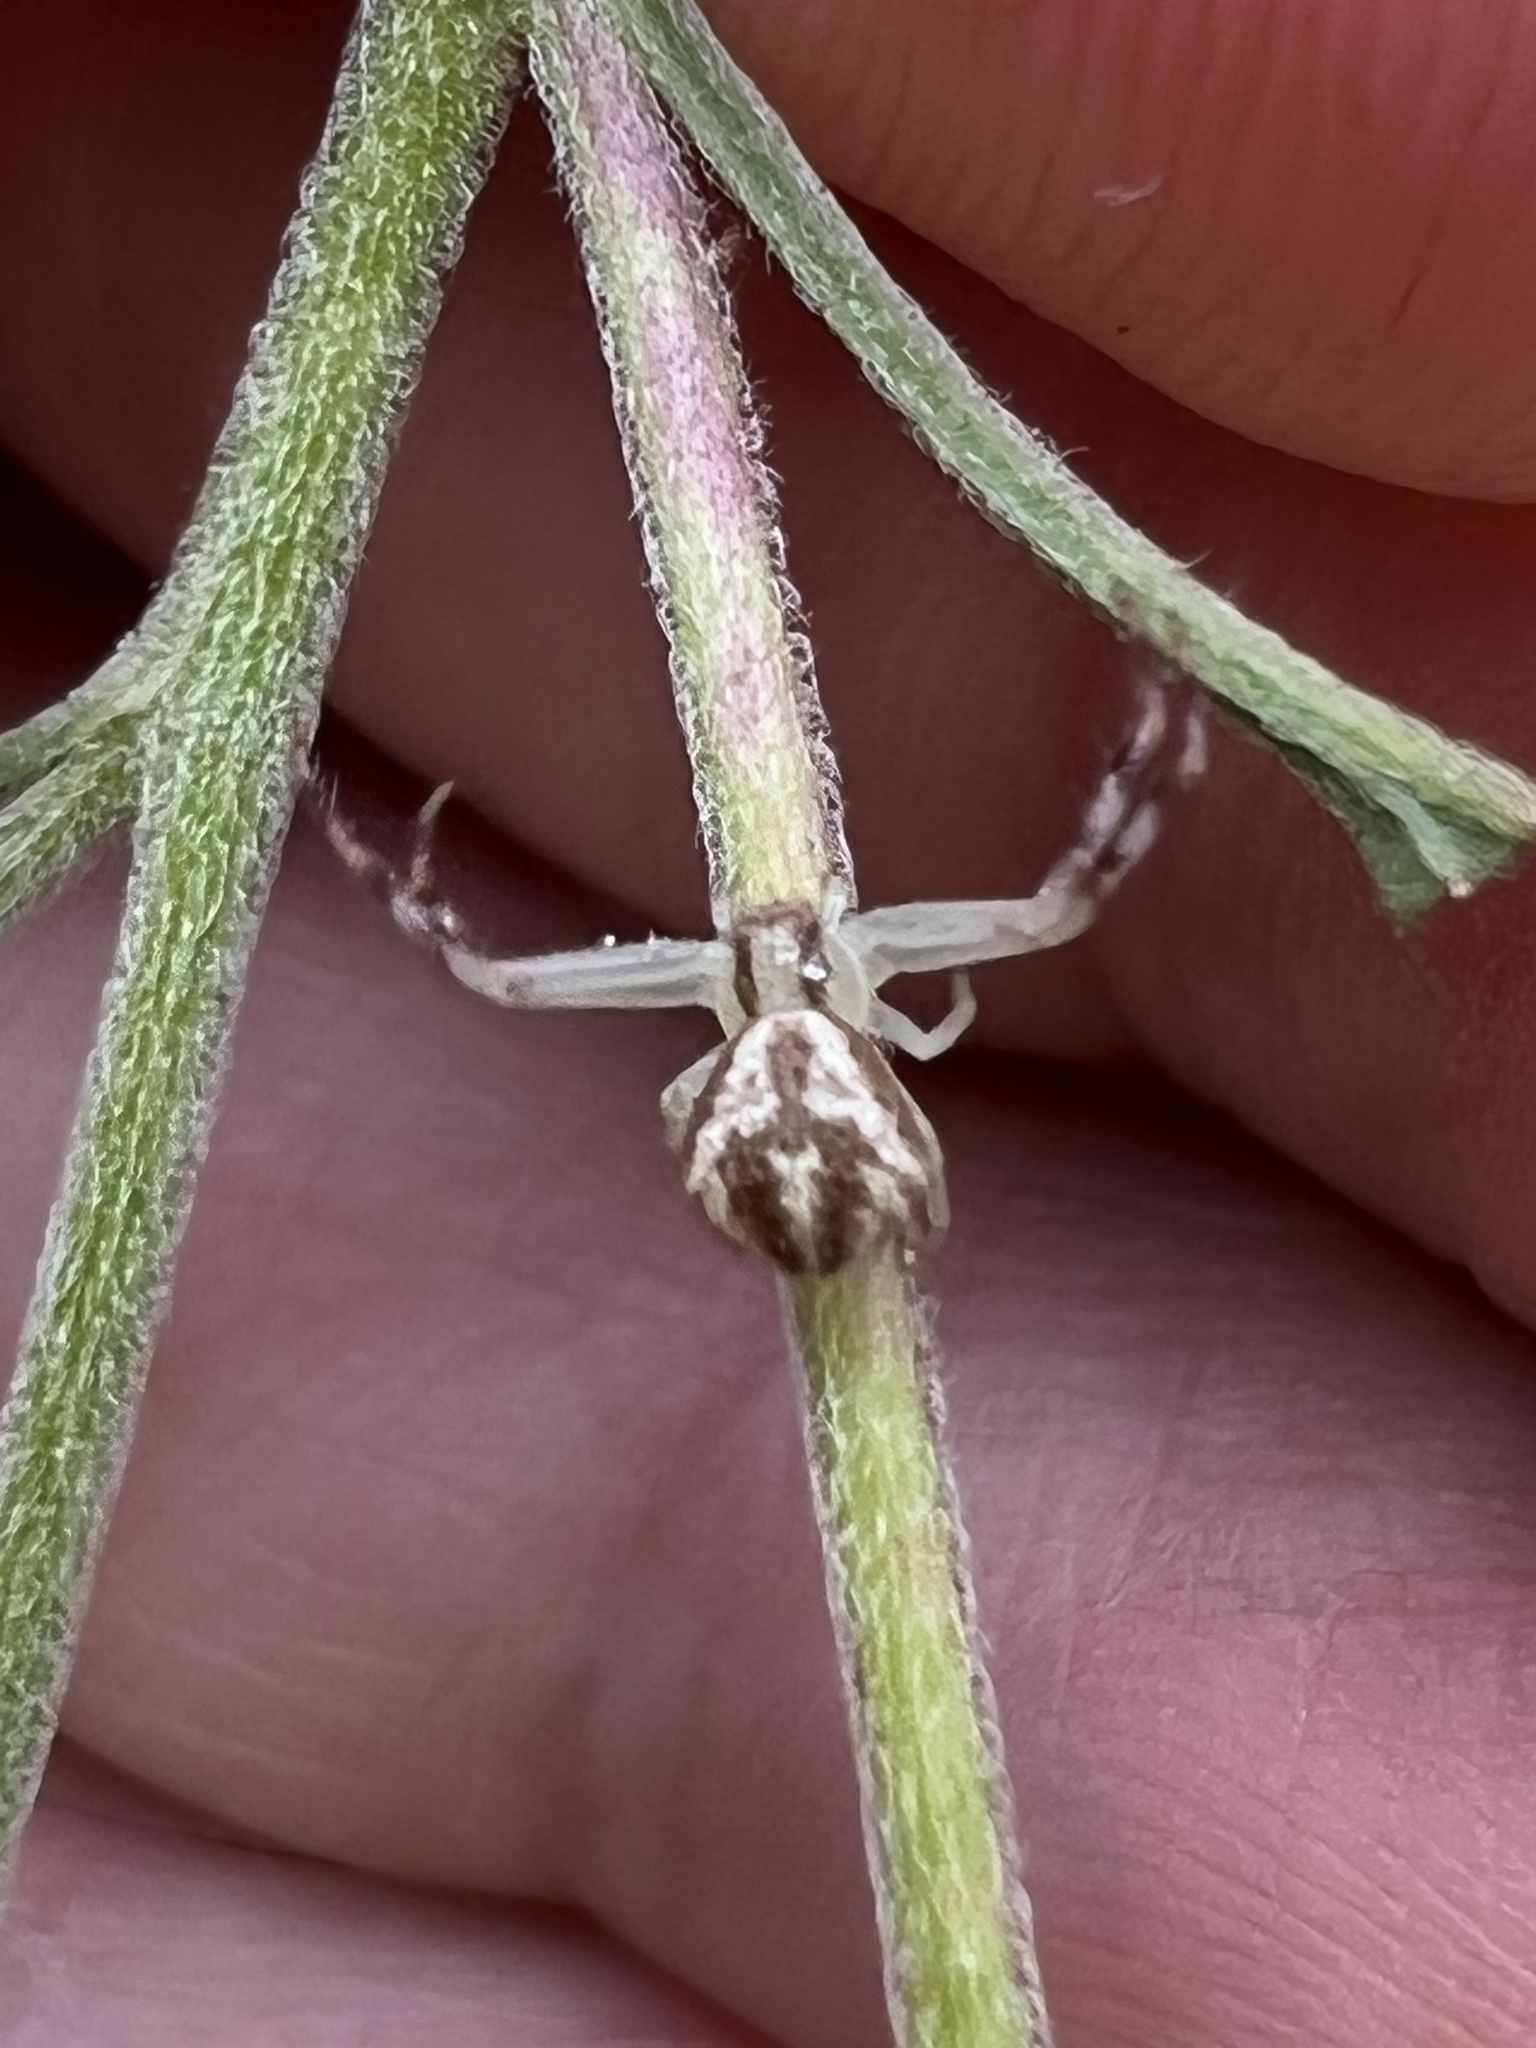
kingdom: Animalia
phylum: Arthropoda
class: Arachnida
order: Araneae
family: Thomisidae
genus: Mecaphesa
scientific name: Mecaphesa asperata
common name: Crab spiders
